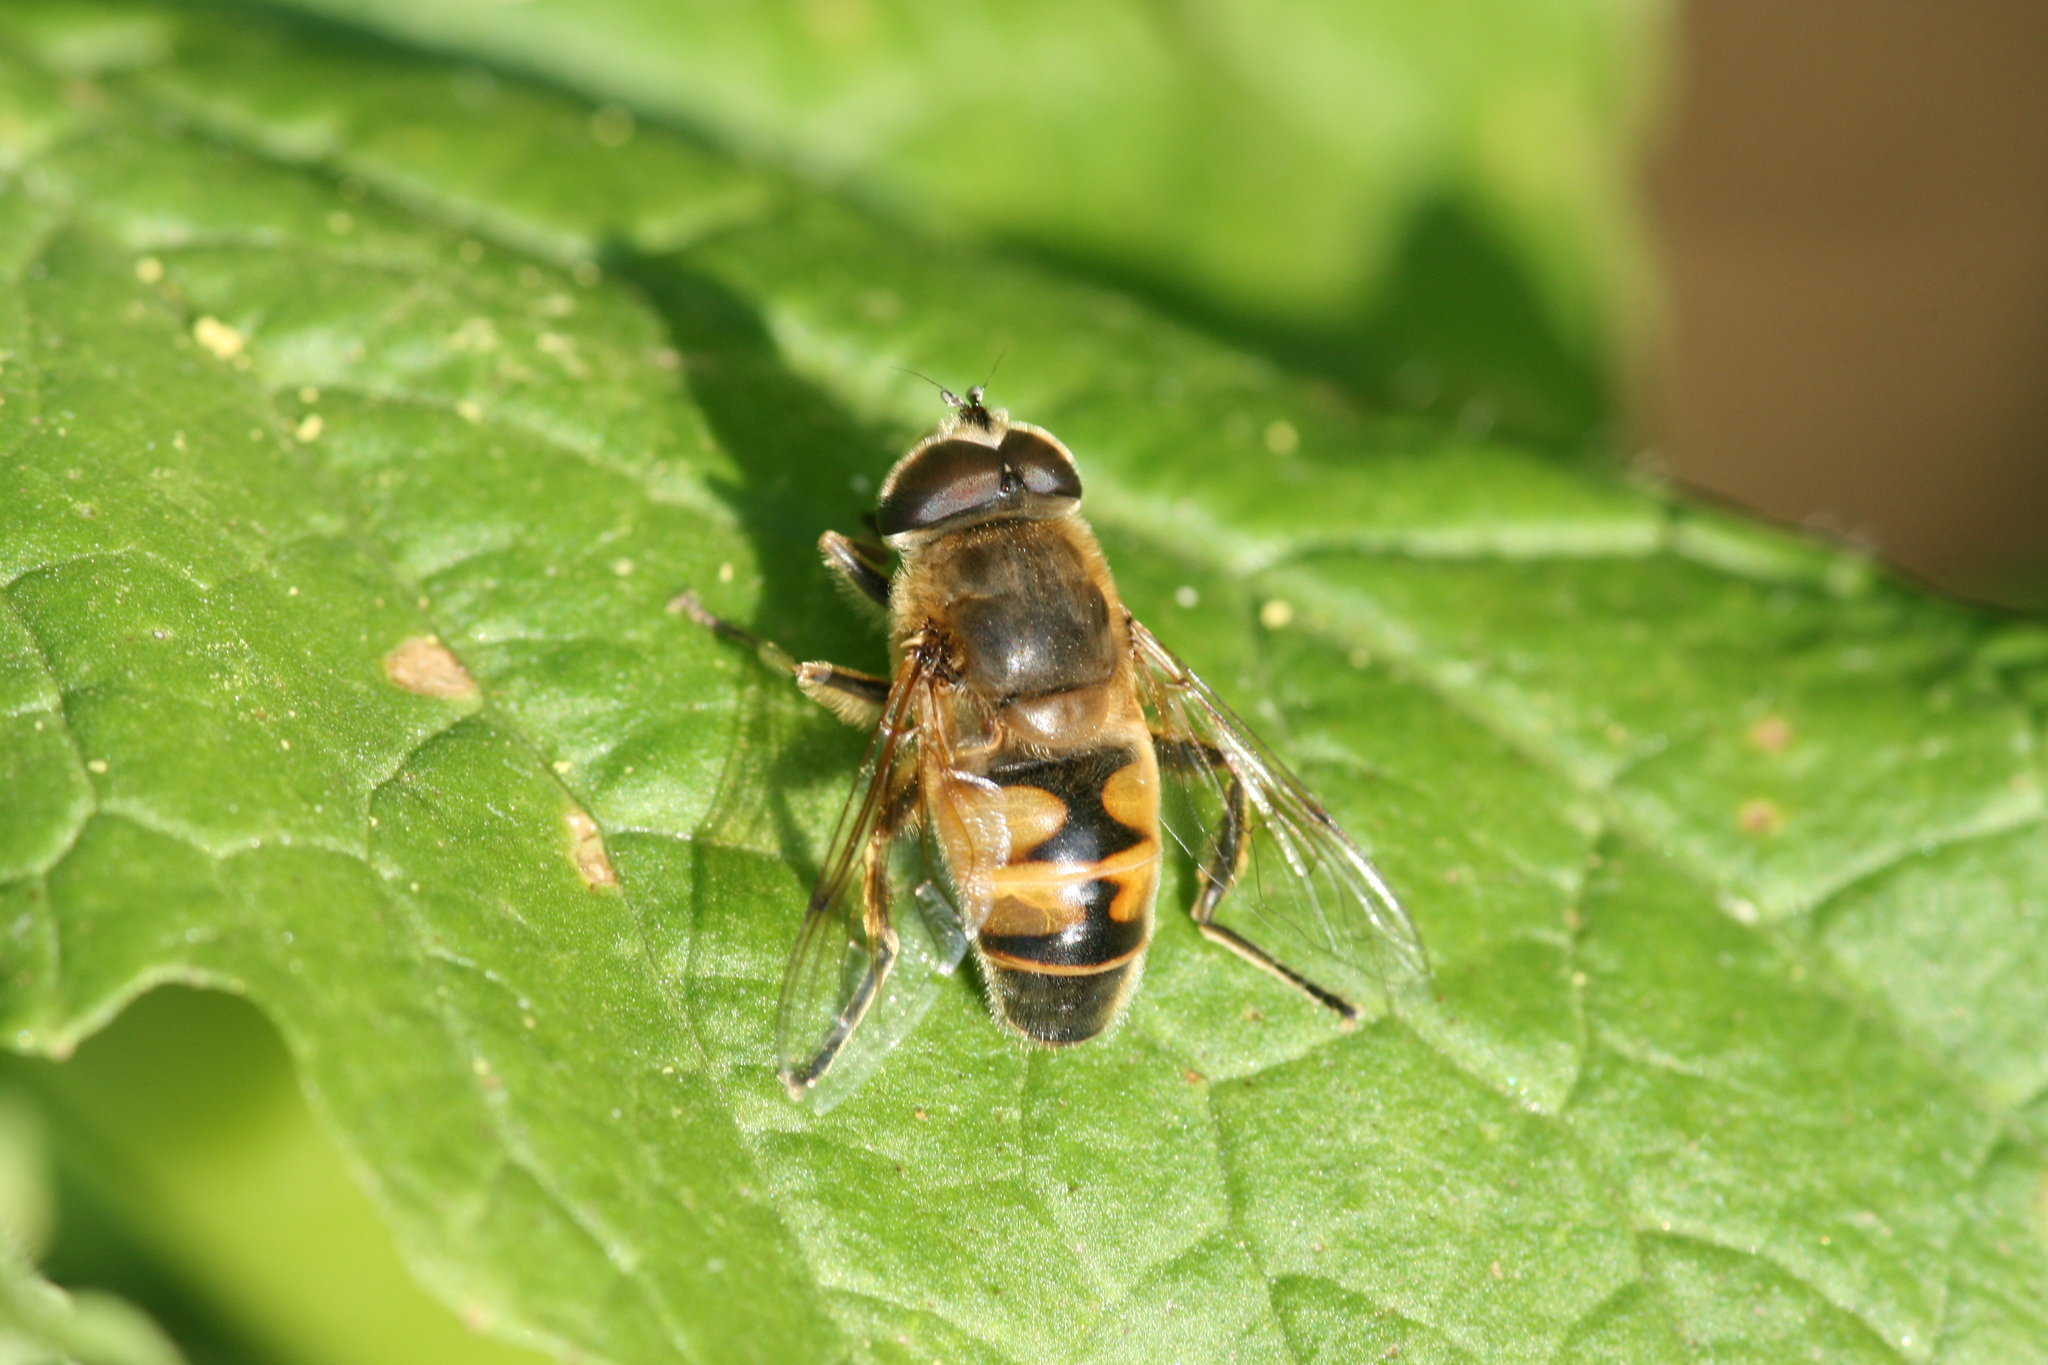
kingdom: Animalia
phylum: Arthropoda
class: Insecta
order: Diptera
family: Syrphidae
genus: Eristalis
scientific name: Eristalis tenax
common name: Drone fly
